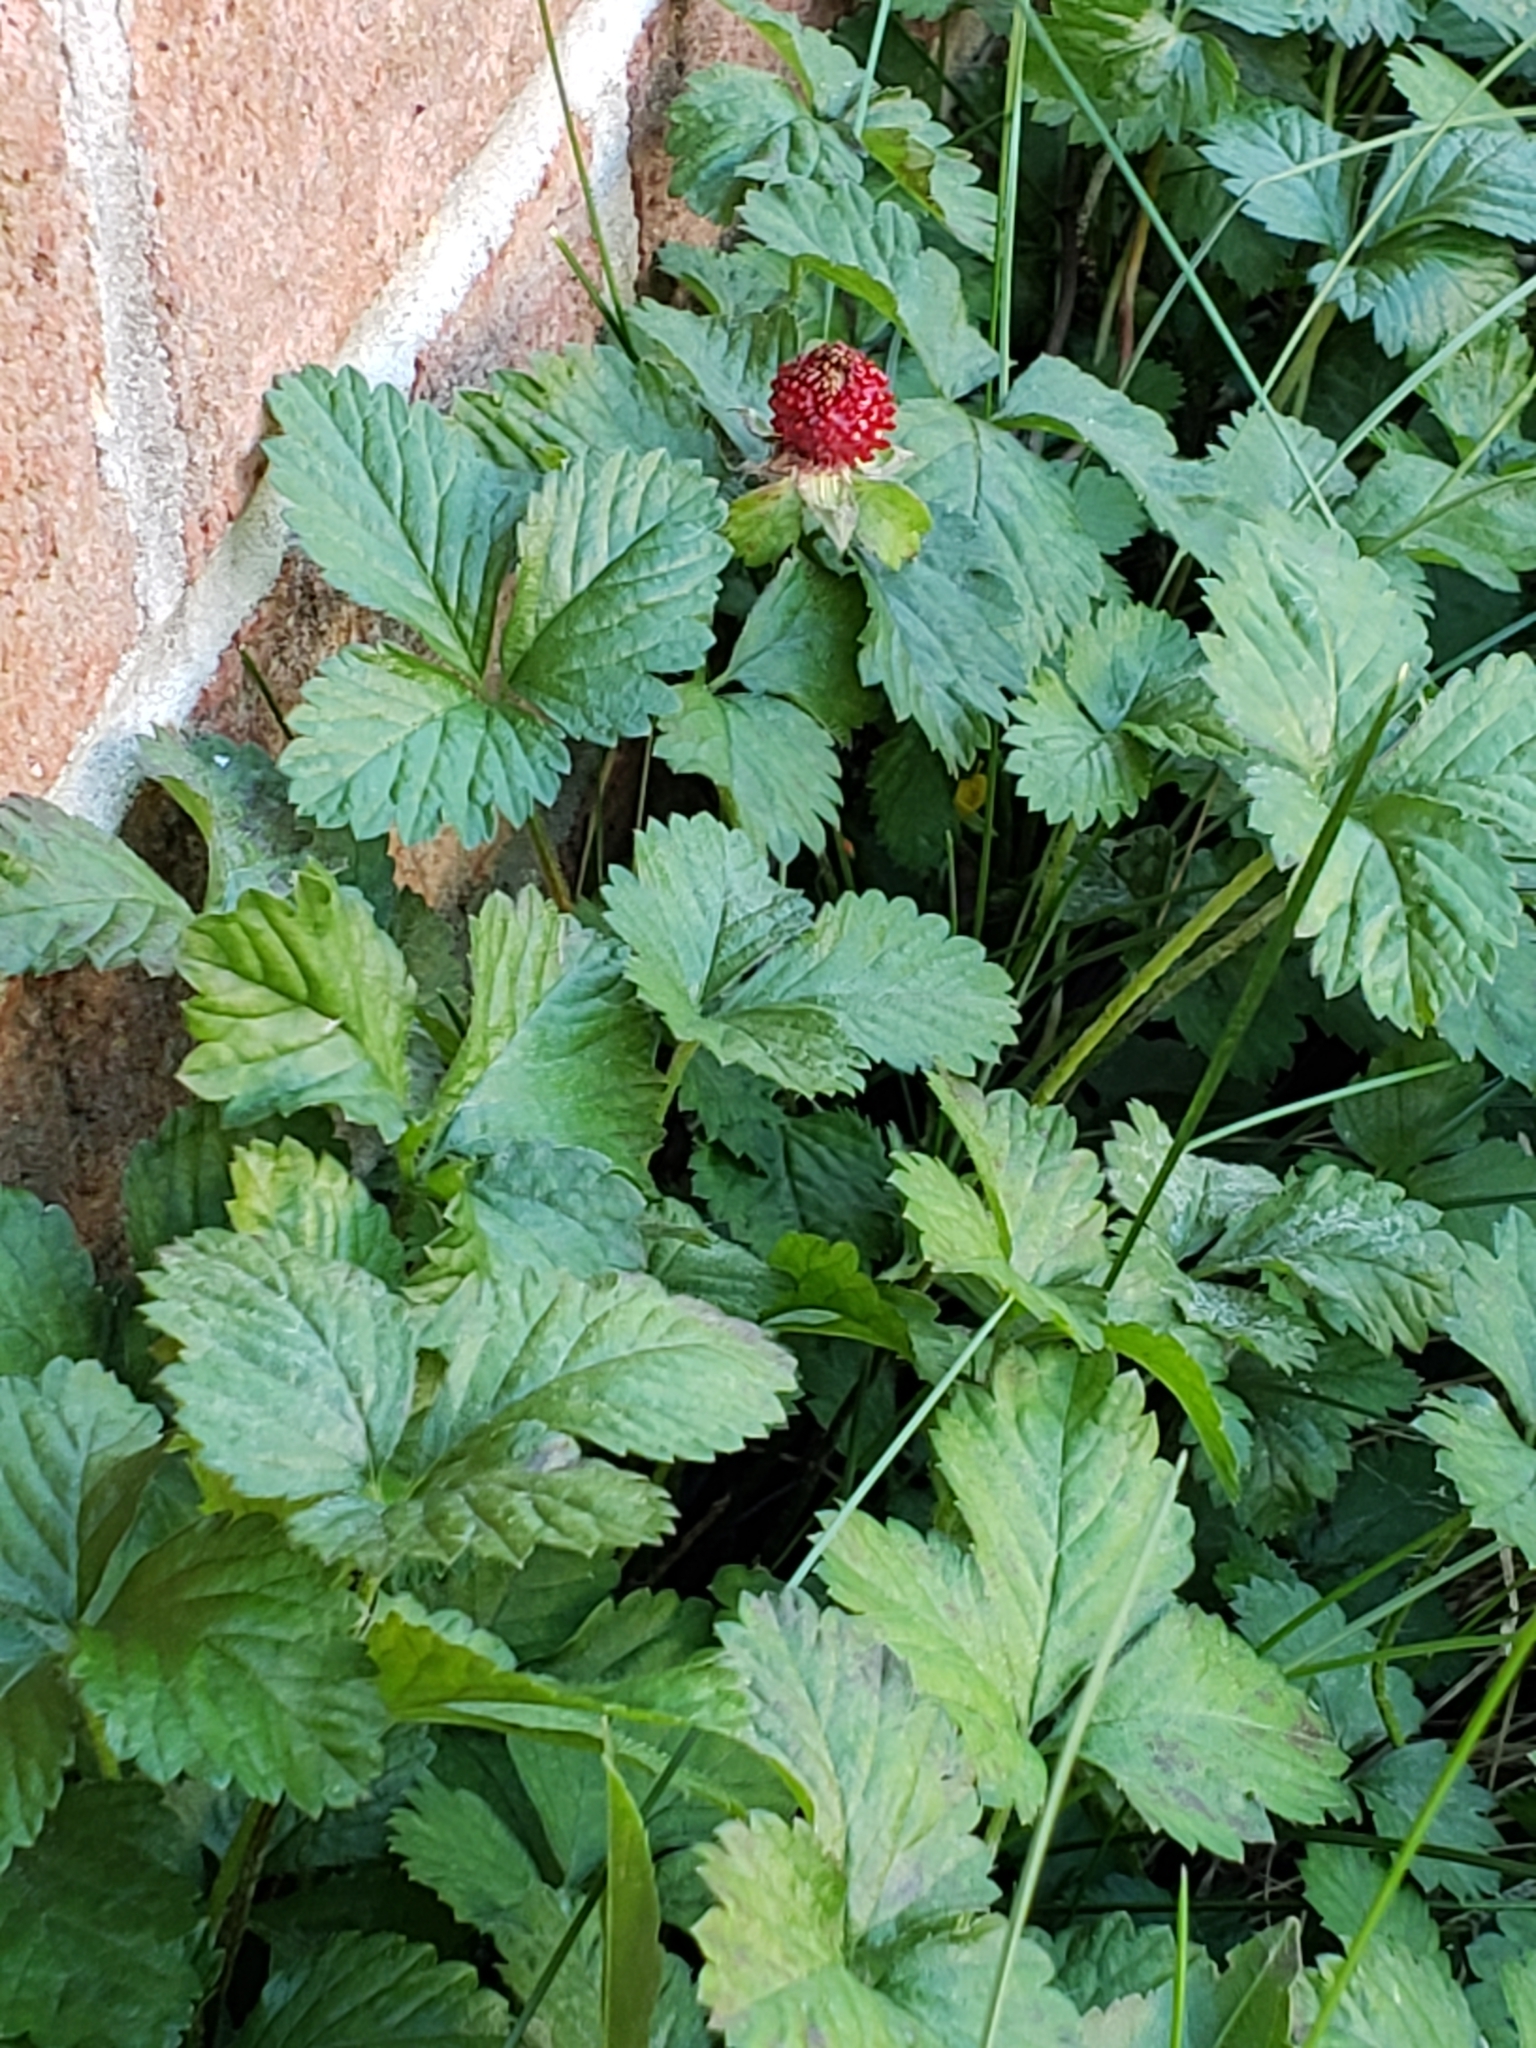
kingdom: Plantae
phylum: Tracheophyta
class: Magnoliopsida
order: Rosales
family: Rosaceae
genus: Potentilla
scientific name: Potentilla indica
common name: Yellow-flowered strawberry
